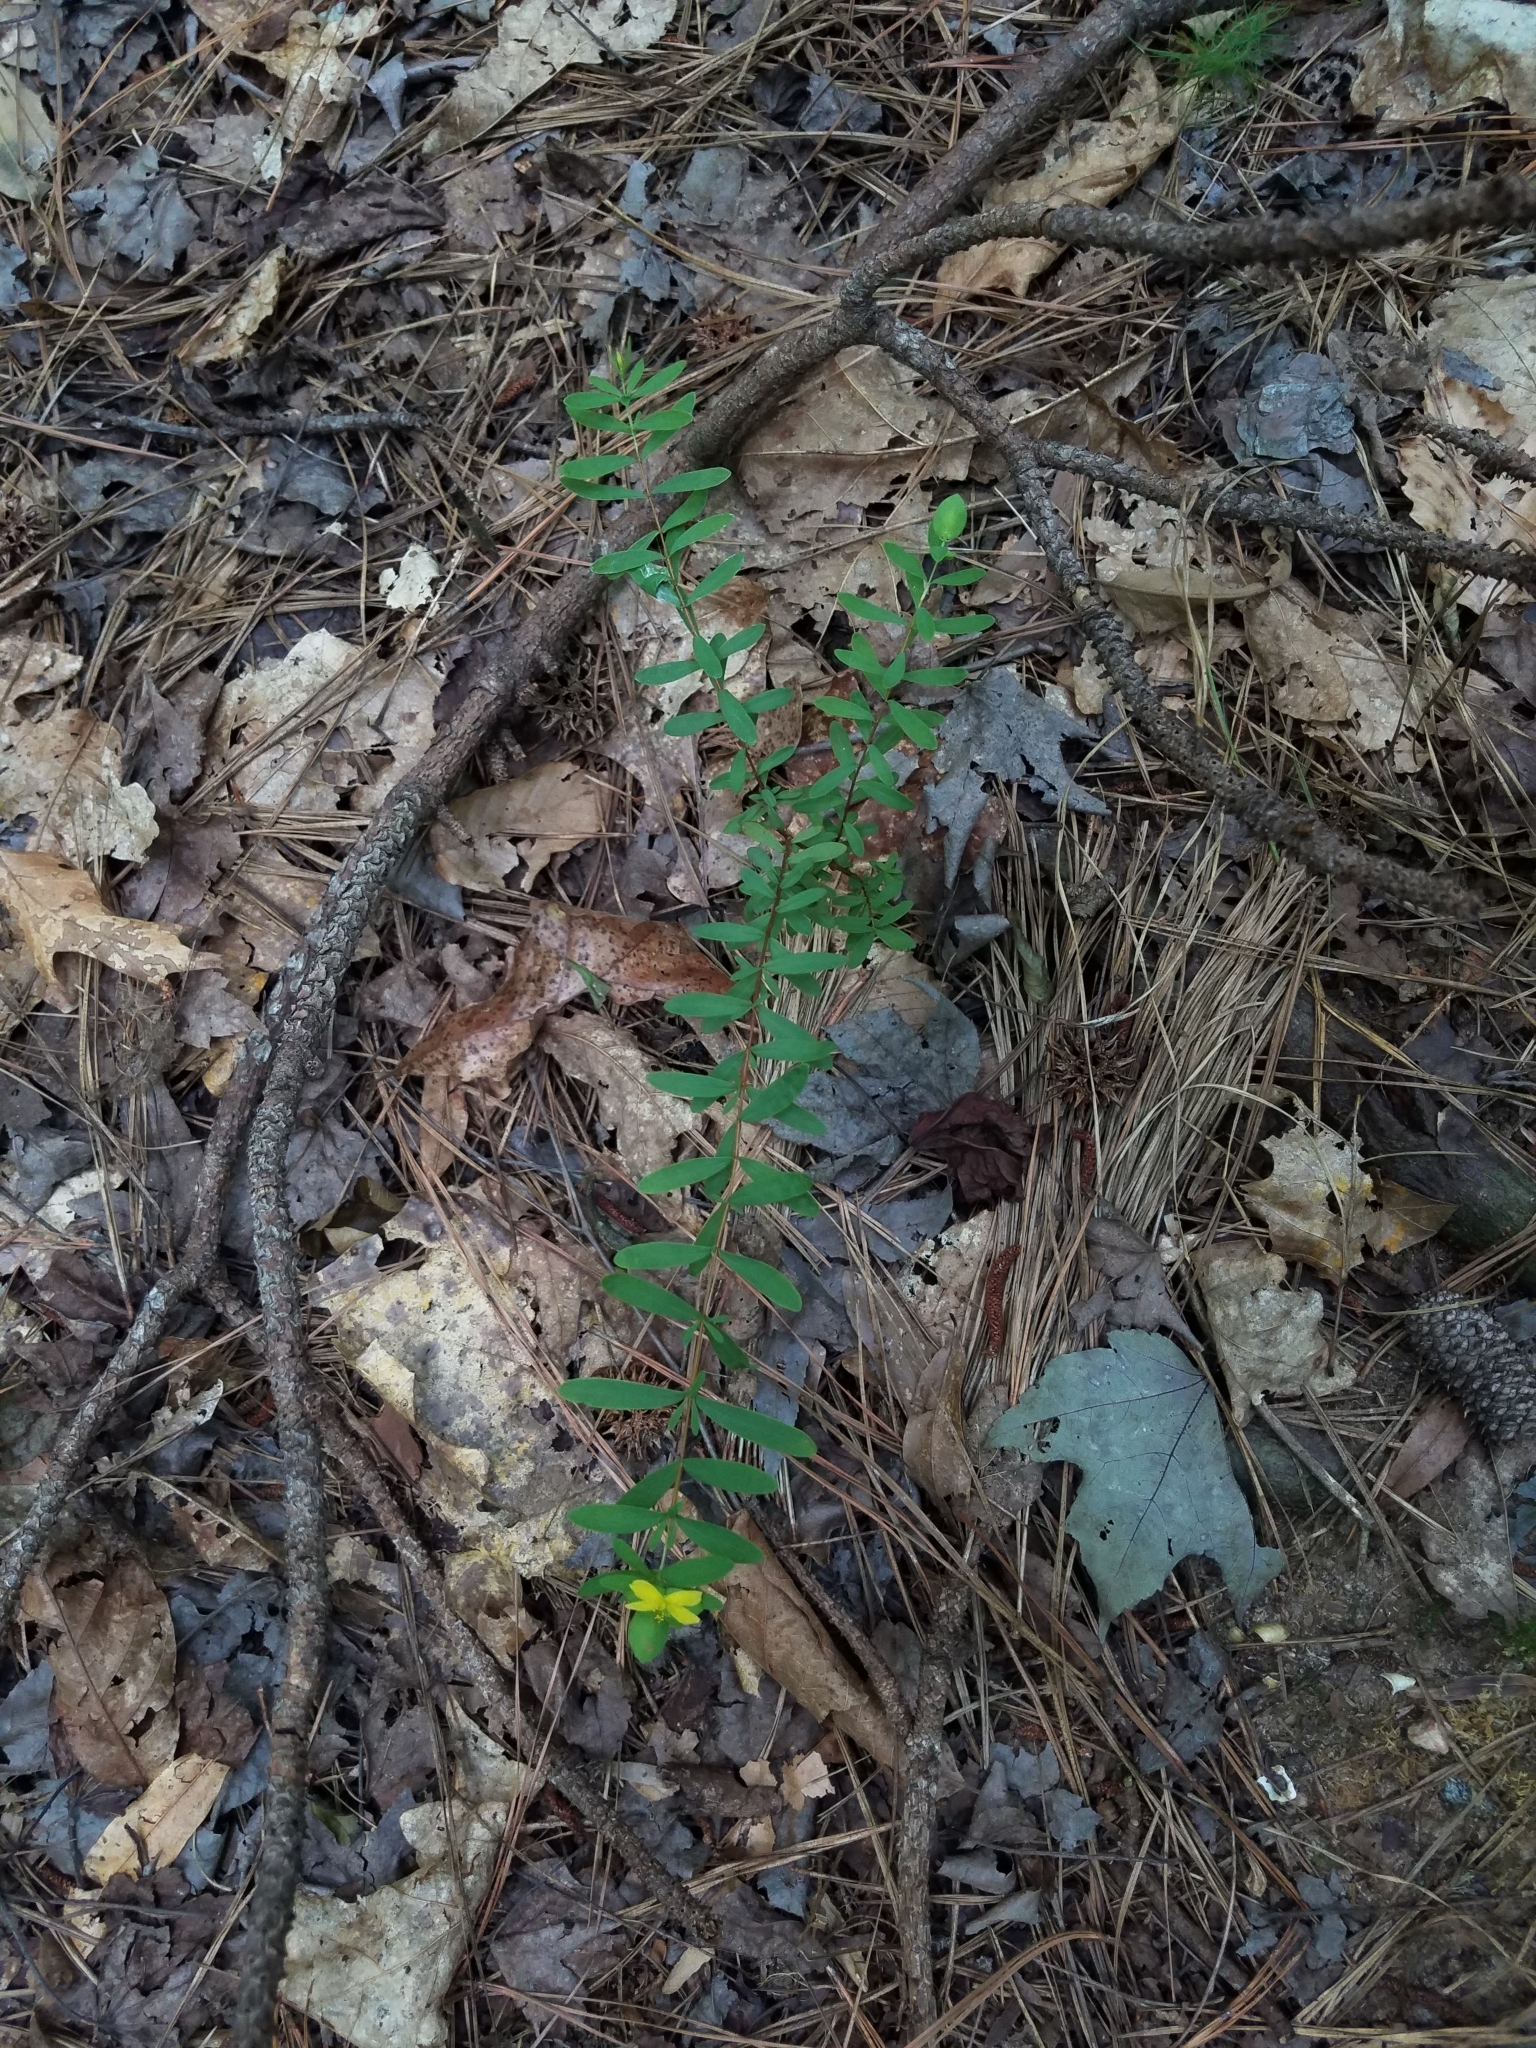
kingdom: Plantae
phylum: Tracheophyta
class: Magnoliopsida
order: Malpighiales
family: Hypericaceae
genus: Hypericum
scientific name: Hypericum hypericoides
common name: St. andrew's cross
